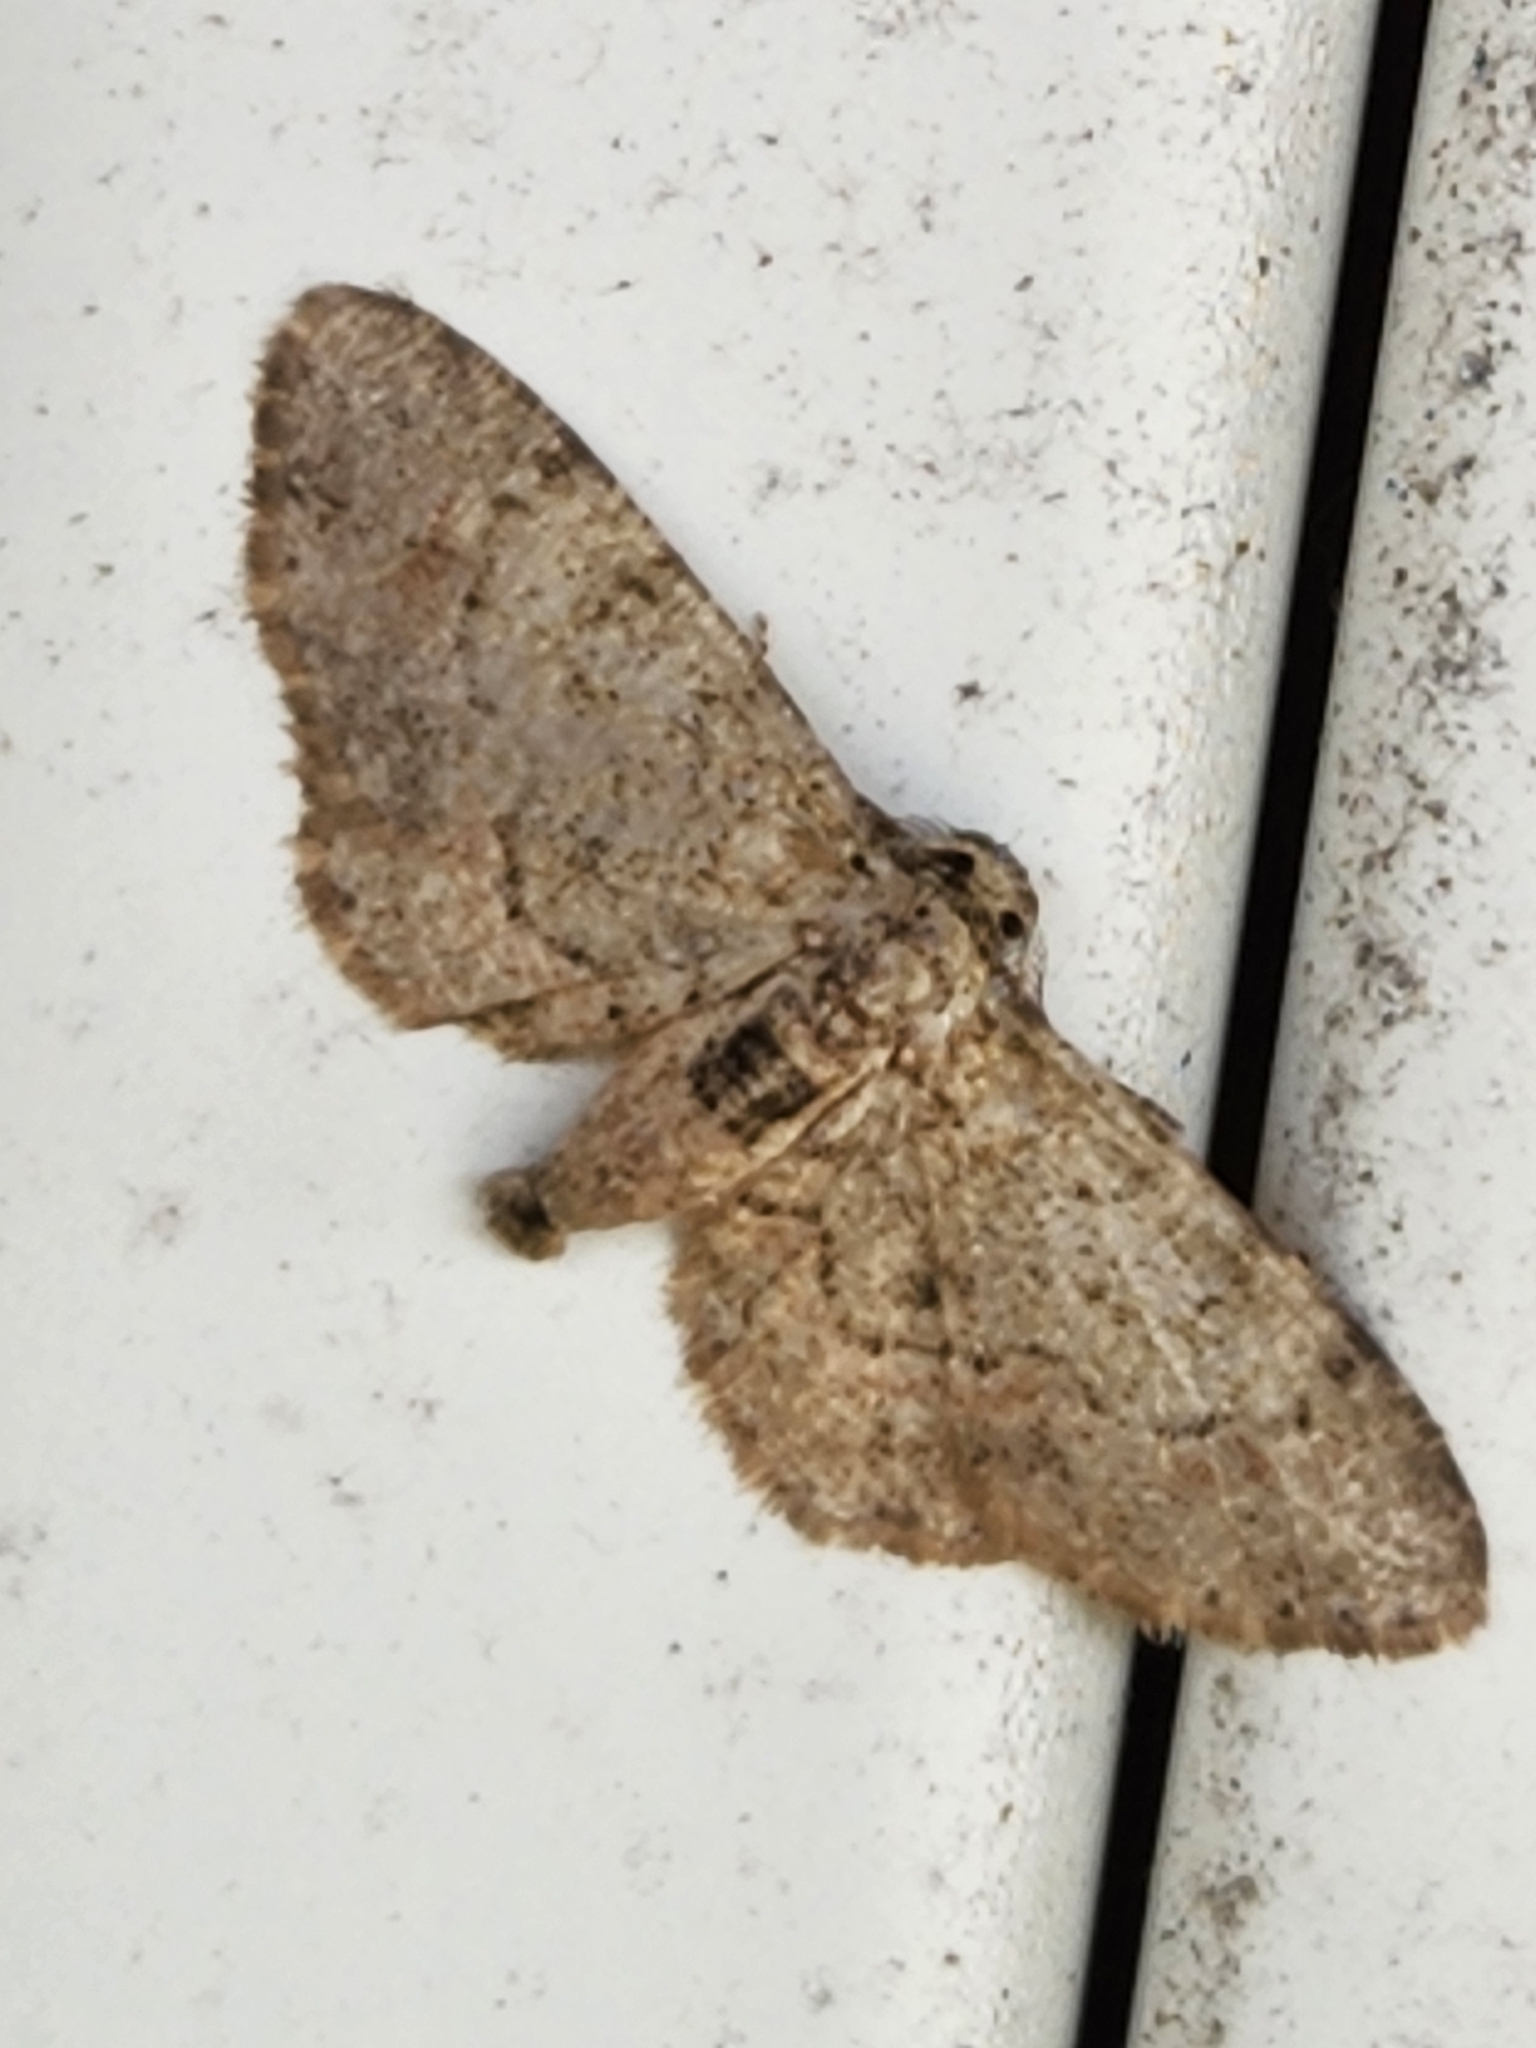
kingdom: Animalia
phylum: Arthropoda
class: Insecta
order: Lepidoptera
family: Geometridae
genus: Glenoides
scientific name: Glenoides texanaria
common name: Texas gray
